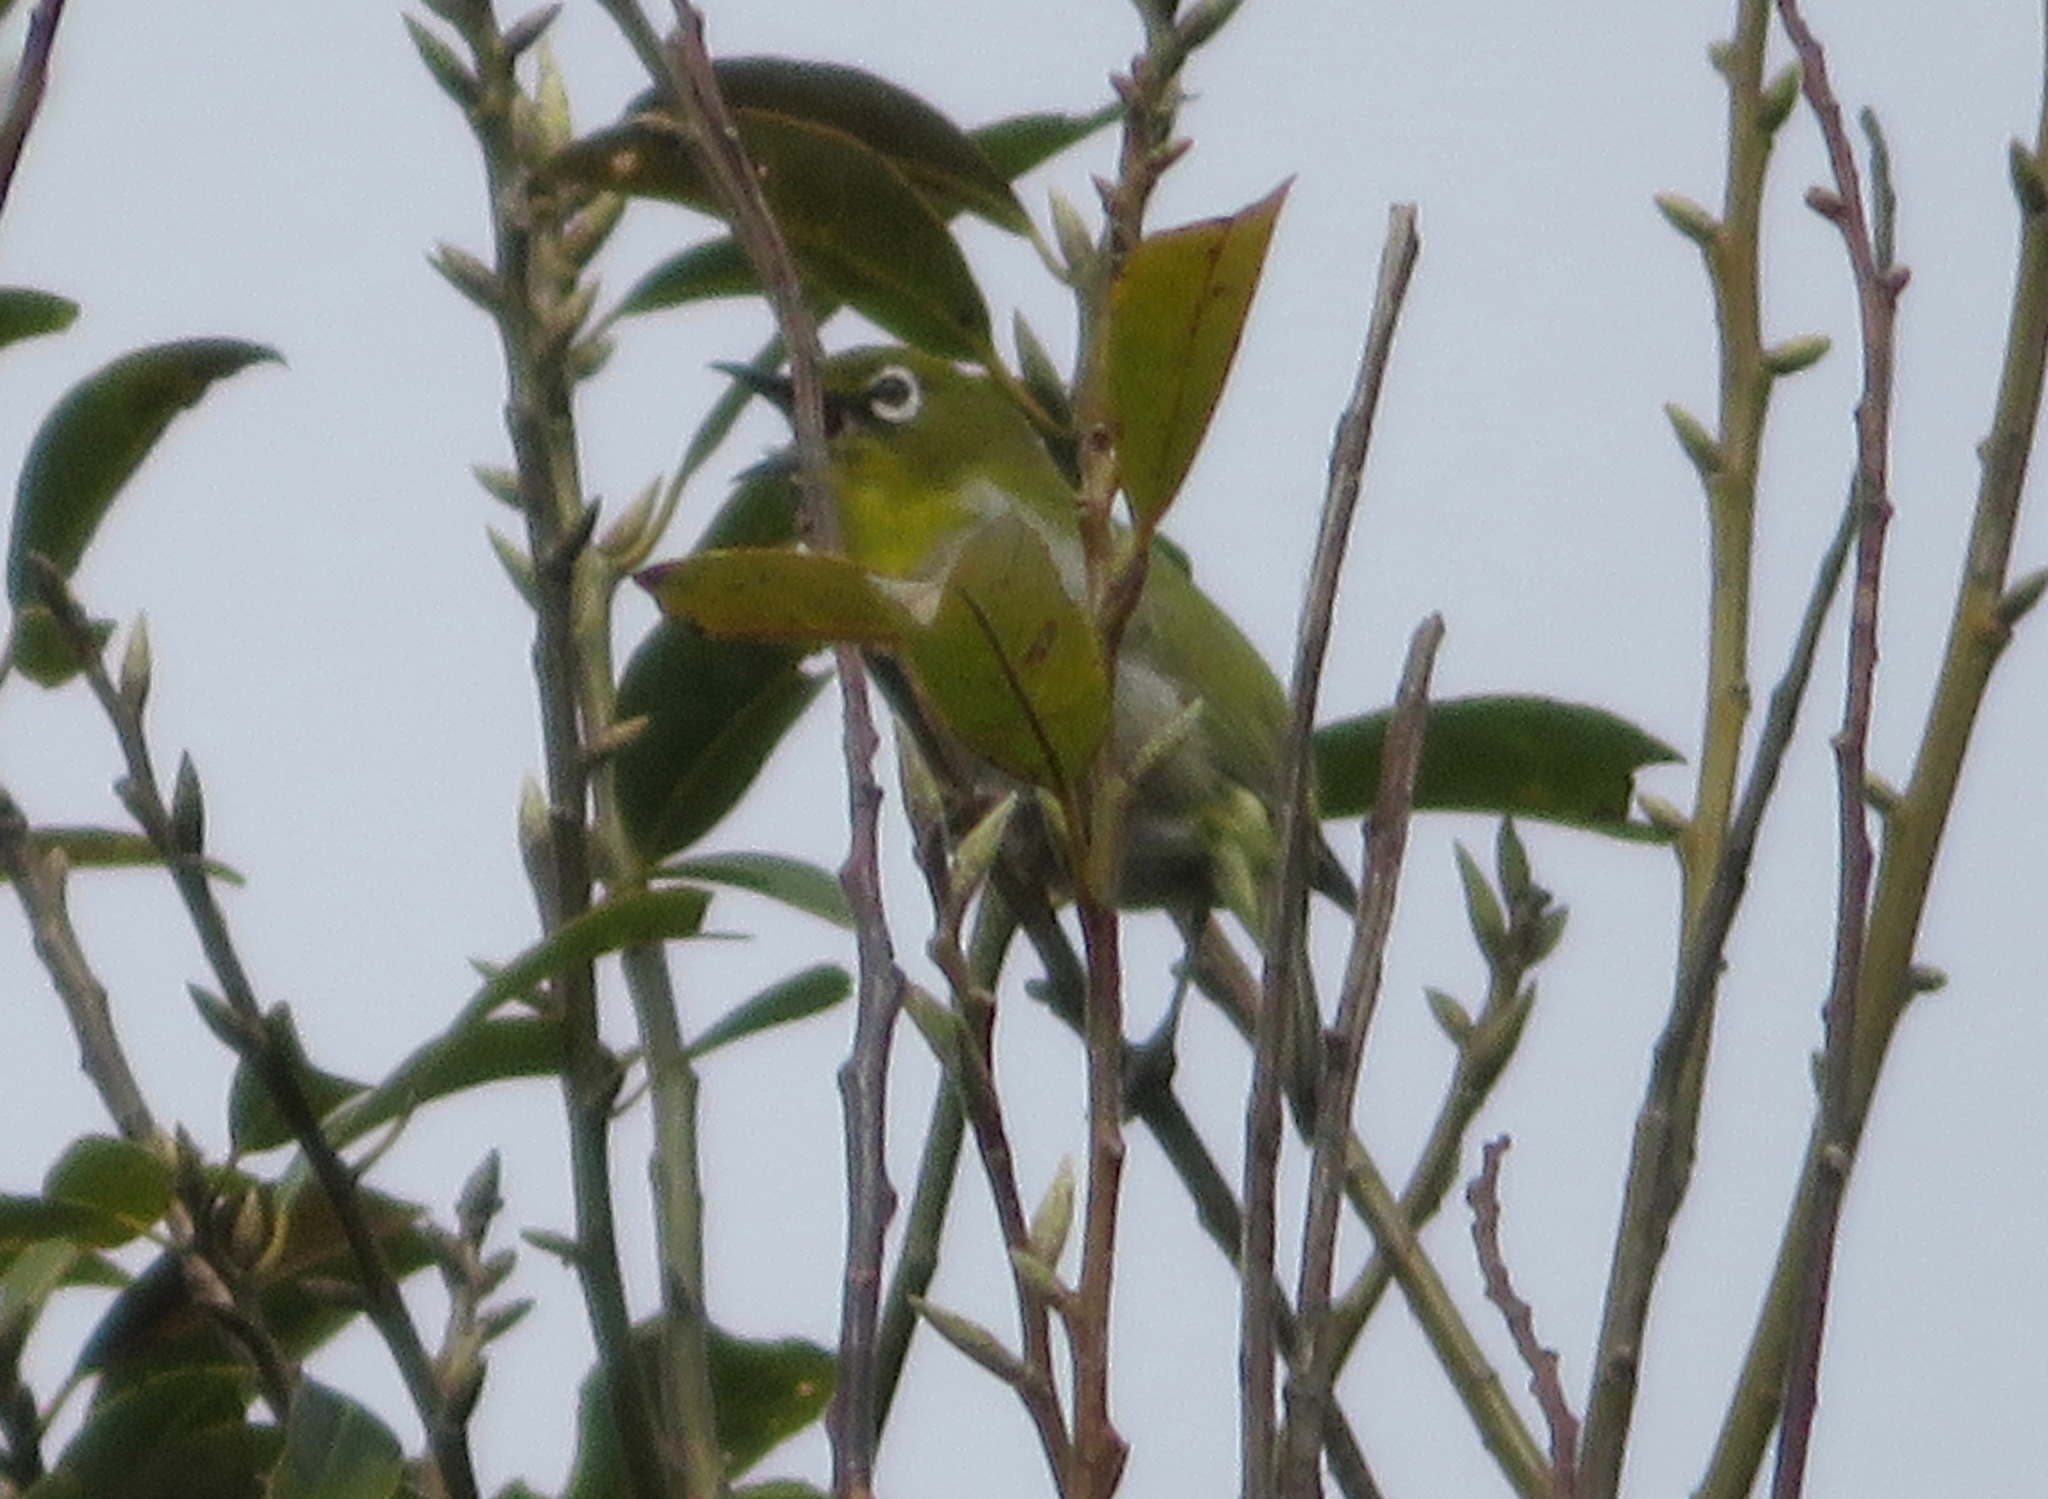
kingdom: Animalia
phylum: Chordata
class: Aves
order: Passeriformes
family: Zosteropidae
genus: Zosterops
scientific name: Zosterops japonicus
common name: Japanese white-eye
